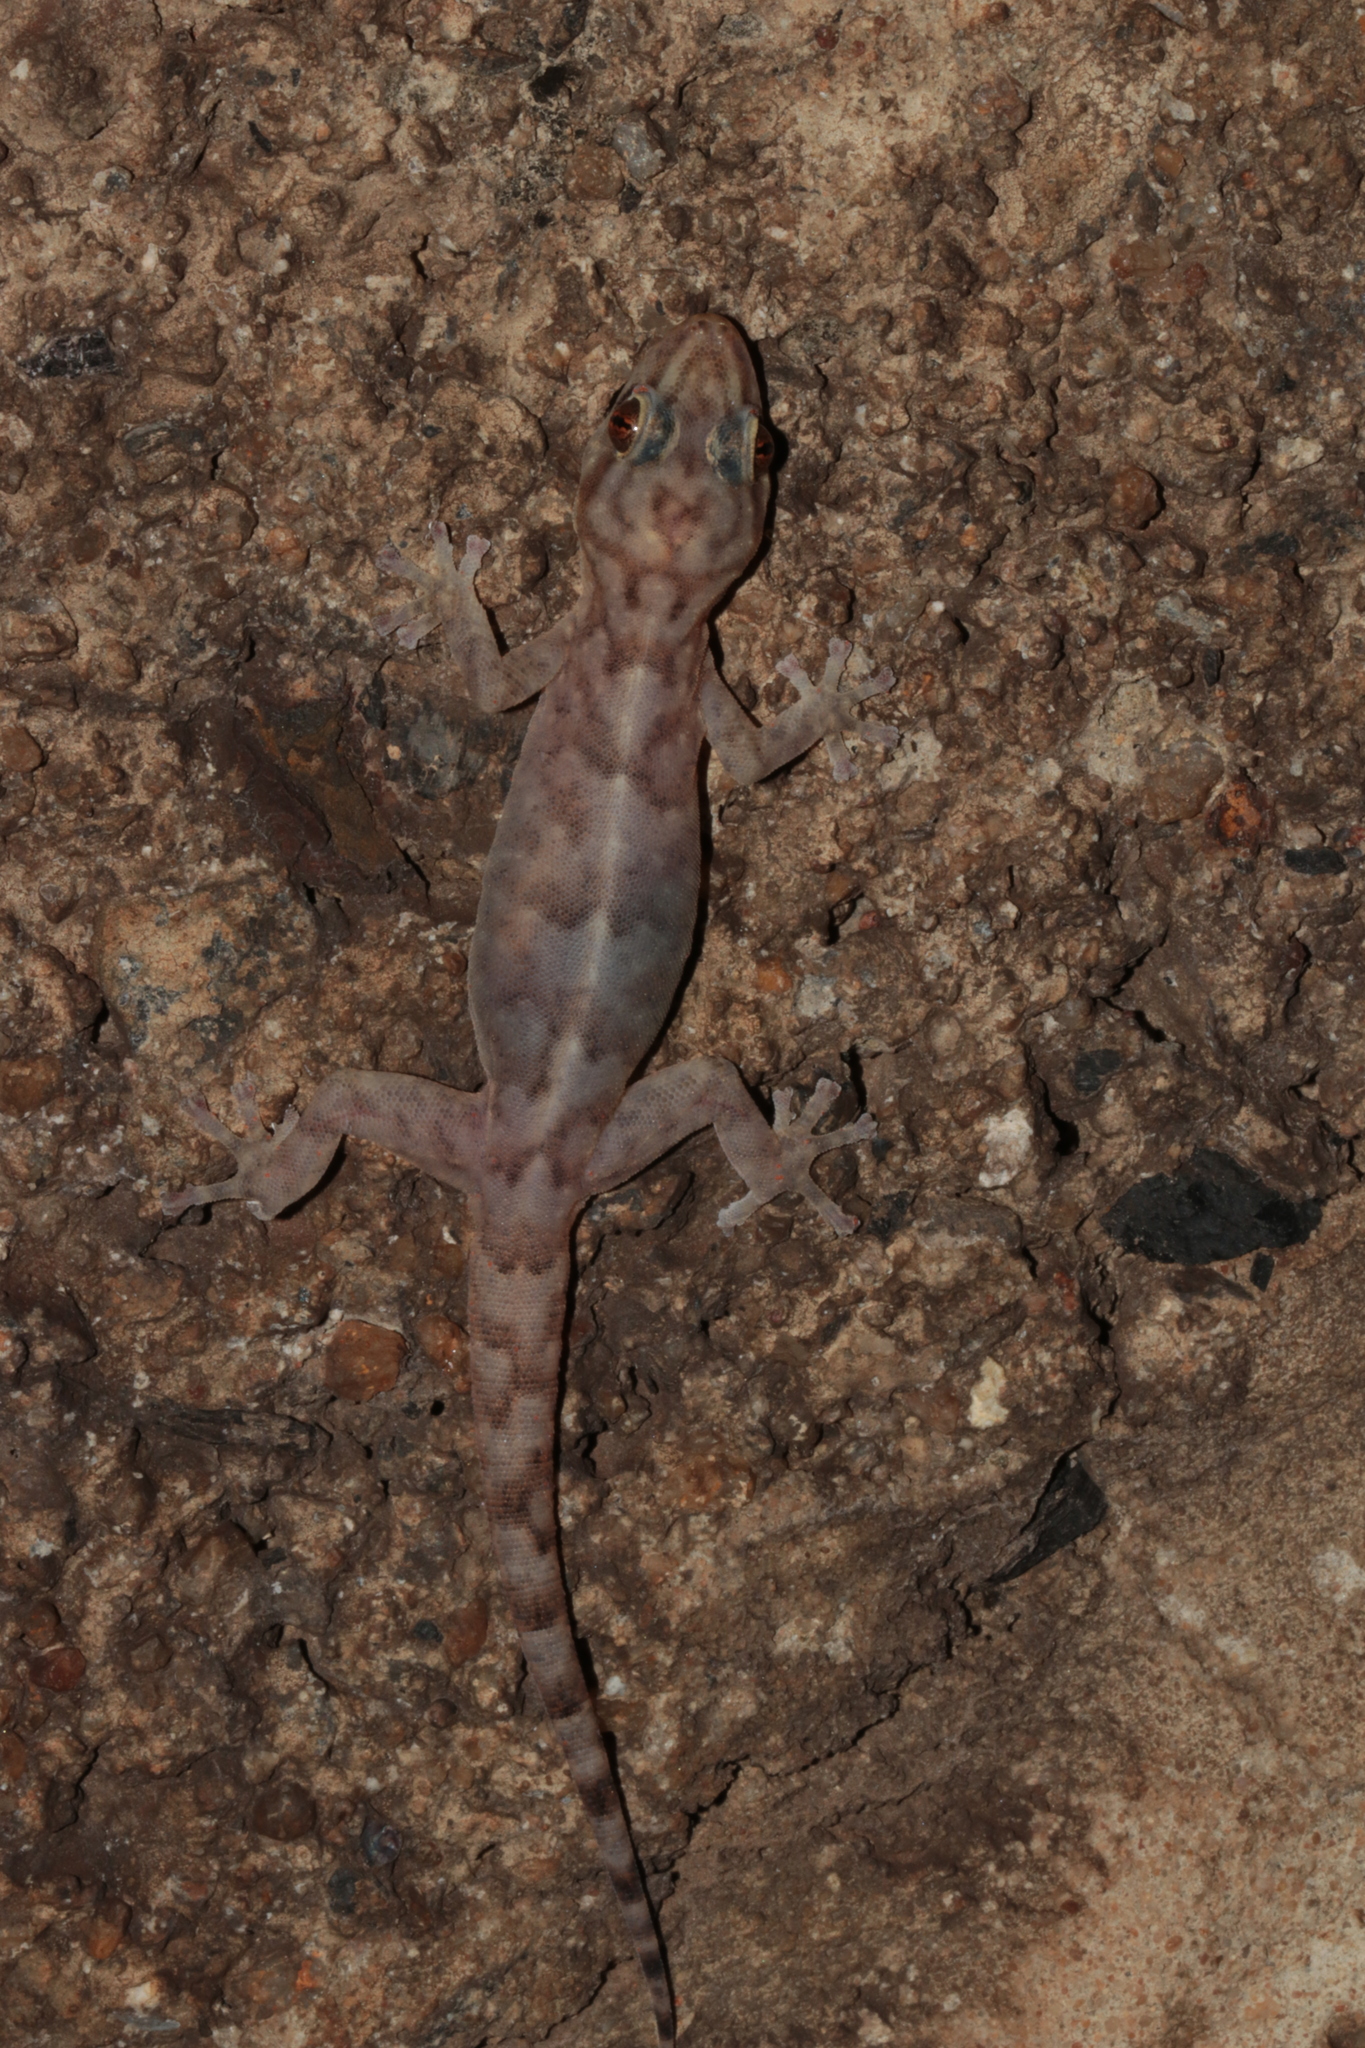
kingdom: Animalia
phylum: Chordata
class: Squamata
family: Gekkonidae
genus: Afroedura
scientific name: Afroedura pienaari
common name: Pienaar’s rock gecko
